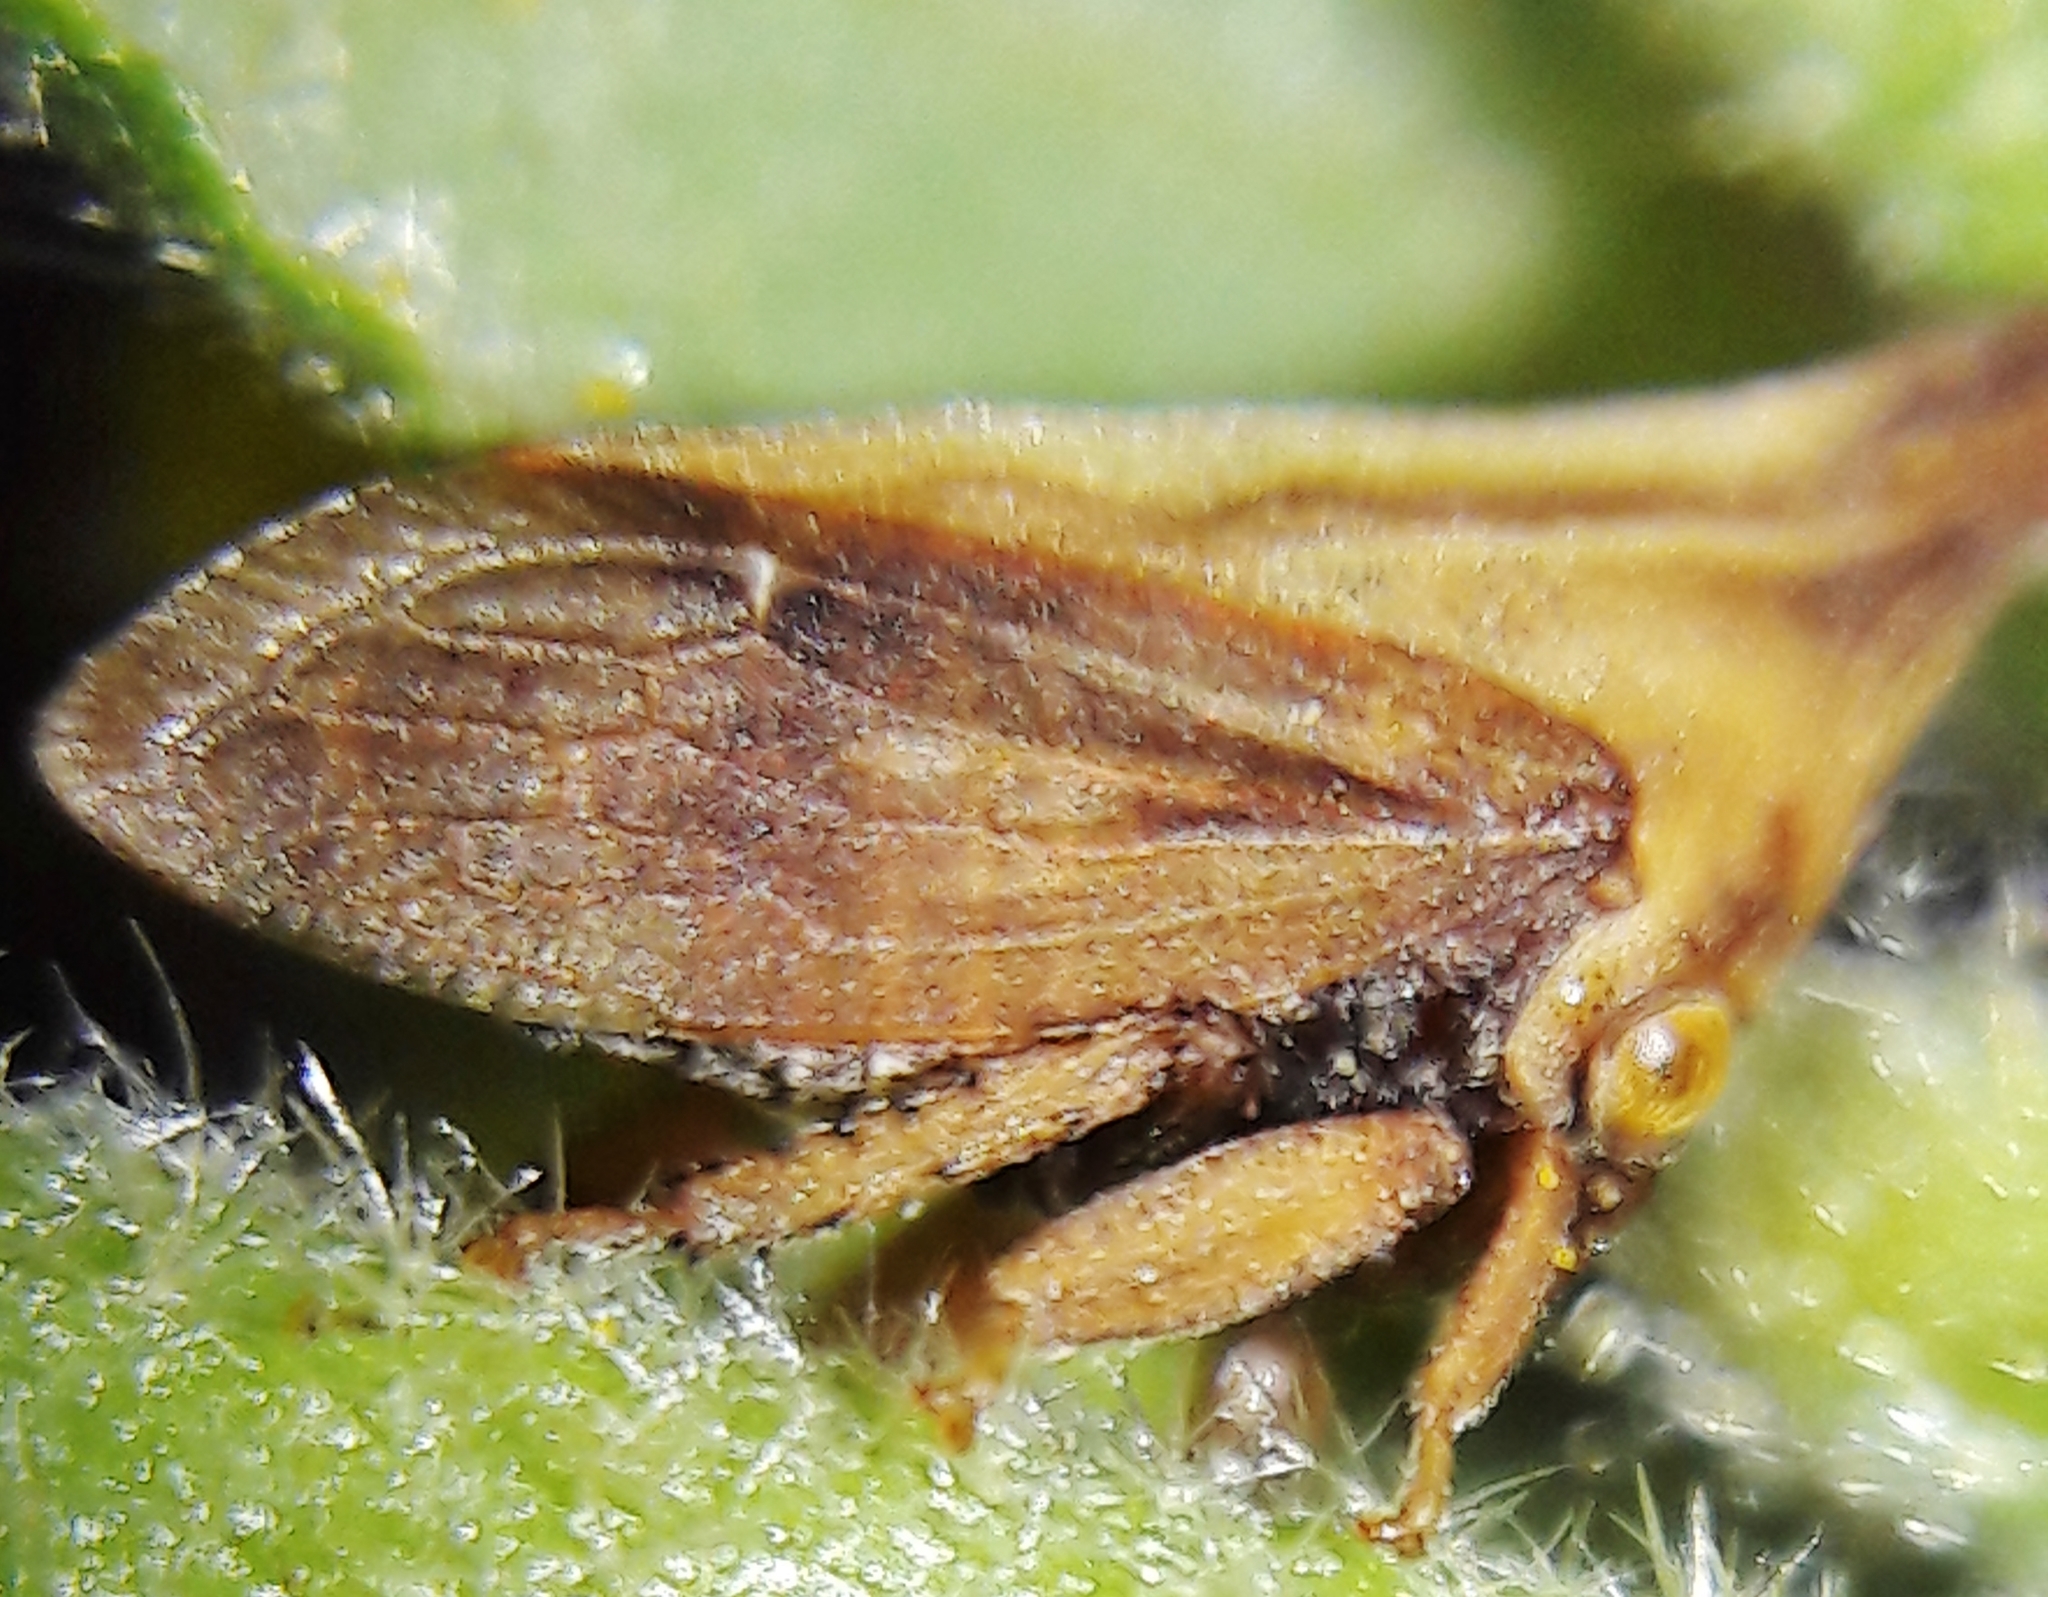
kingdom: Animalia
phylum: Arthropoda
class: Insecta
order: Hemiptera
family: Membracidae
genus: Enchenopa
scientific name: Enchenopa gracilis
